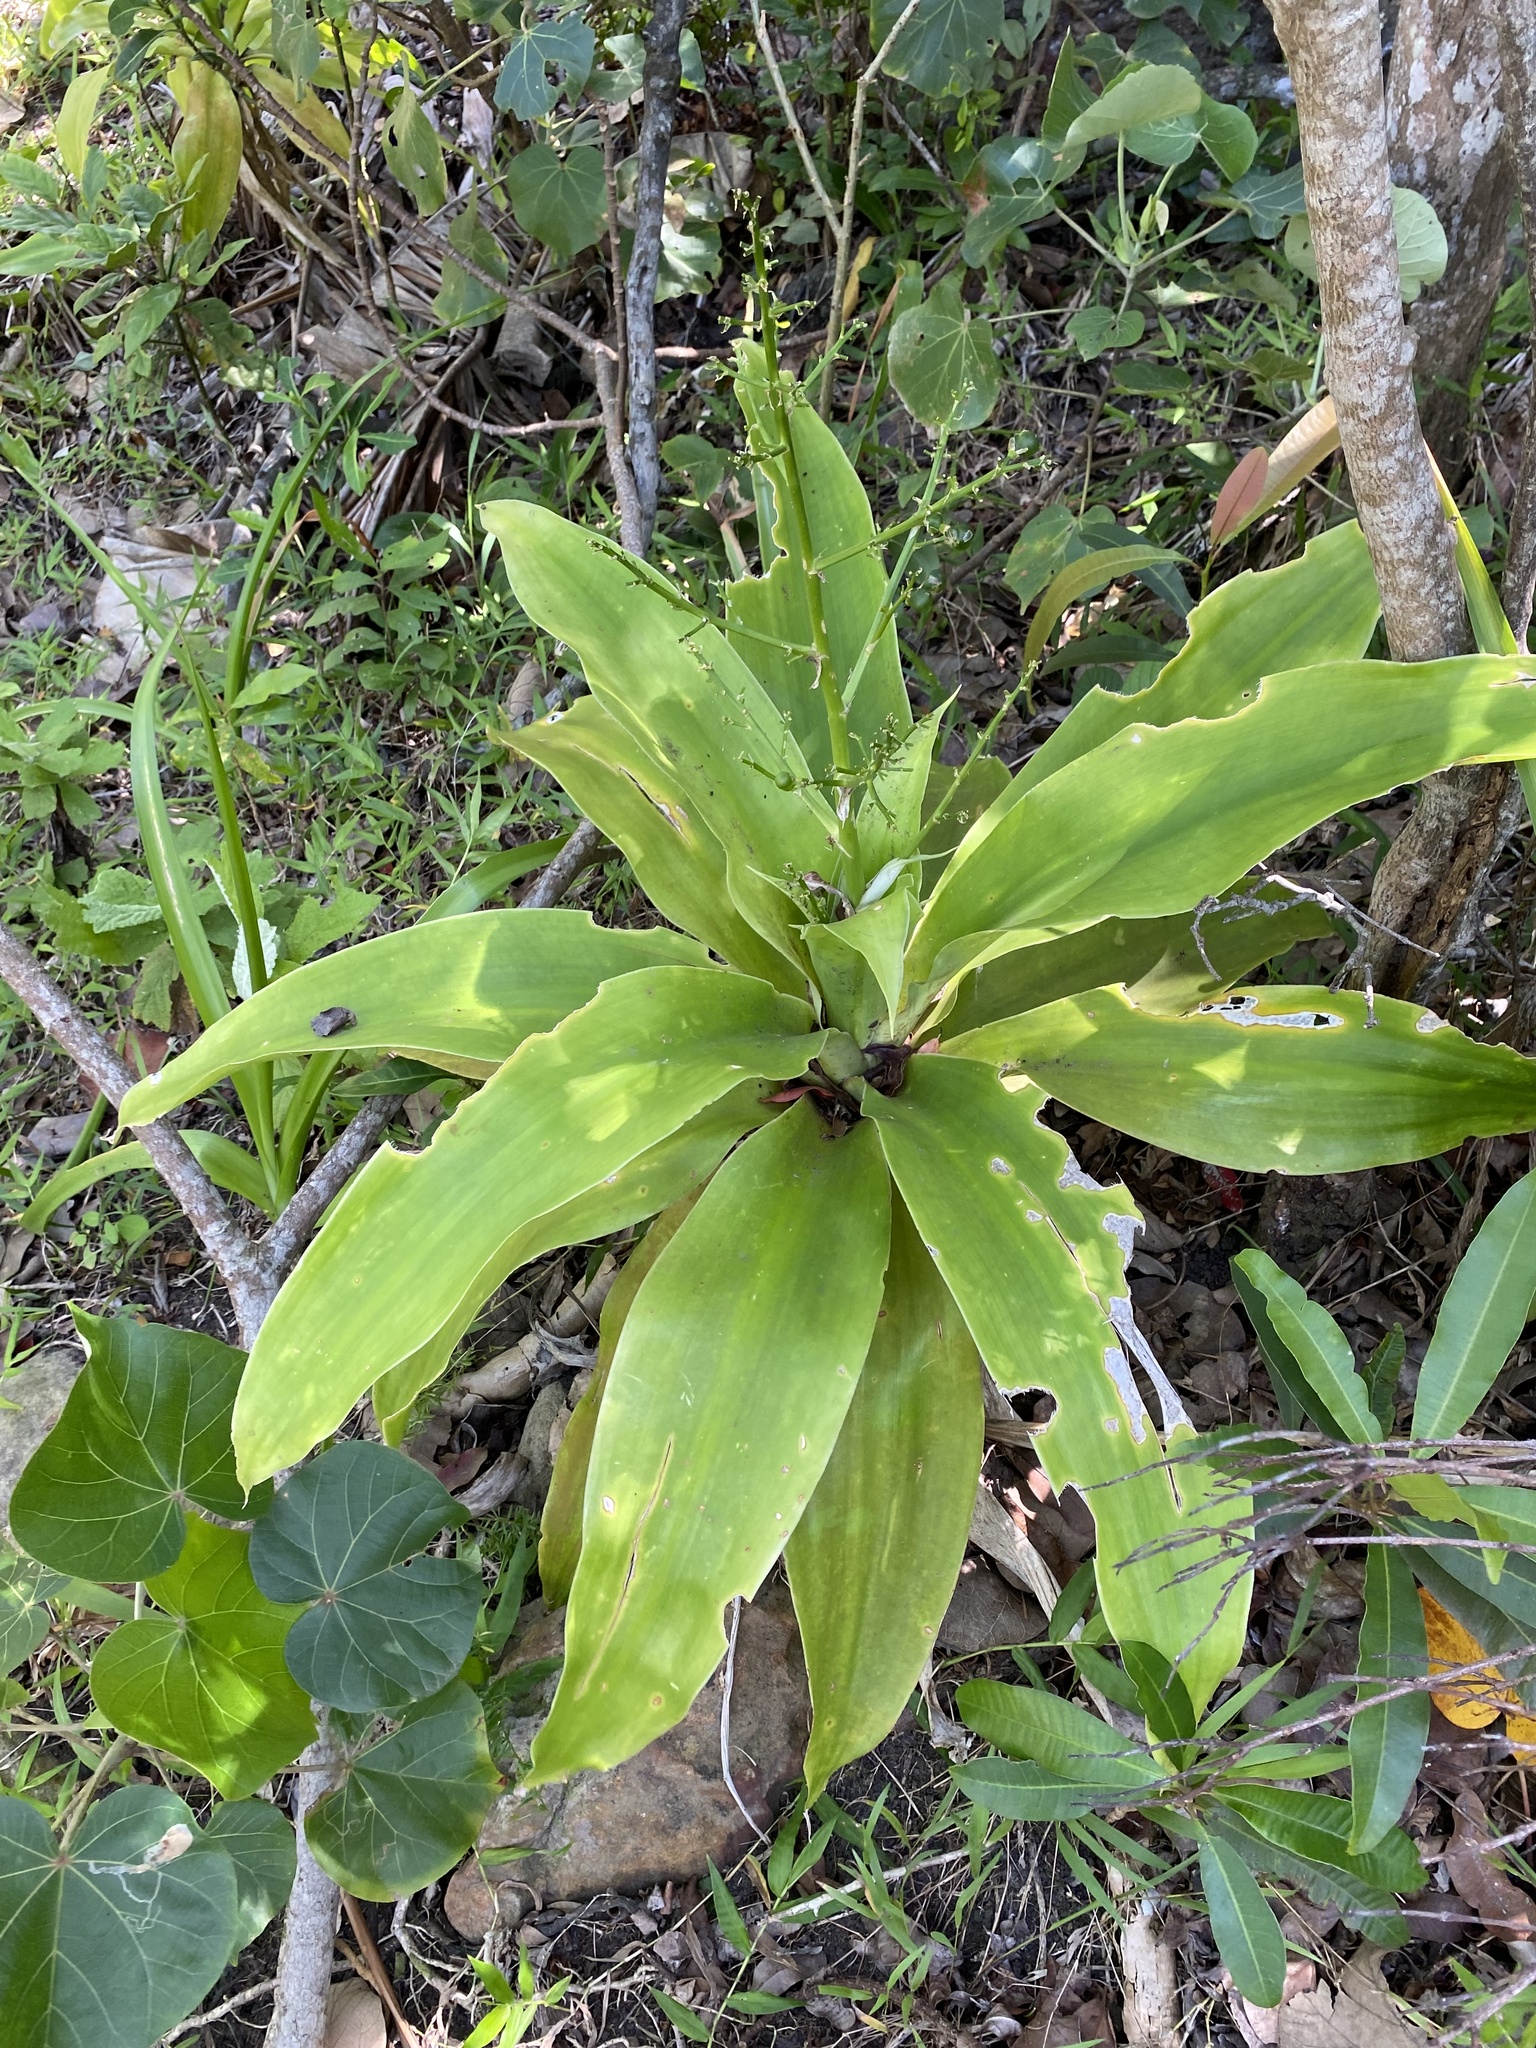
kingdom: Plantae
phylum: Tracheophyta
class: Liliopsida
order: Asparagales
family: Asparagaceae
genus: Dracaena
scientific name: Dracaena aletriformis
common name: Large-leaved dragon tree
